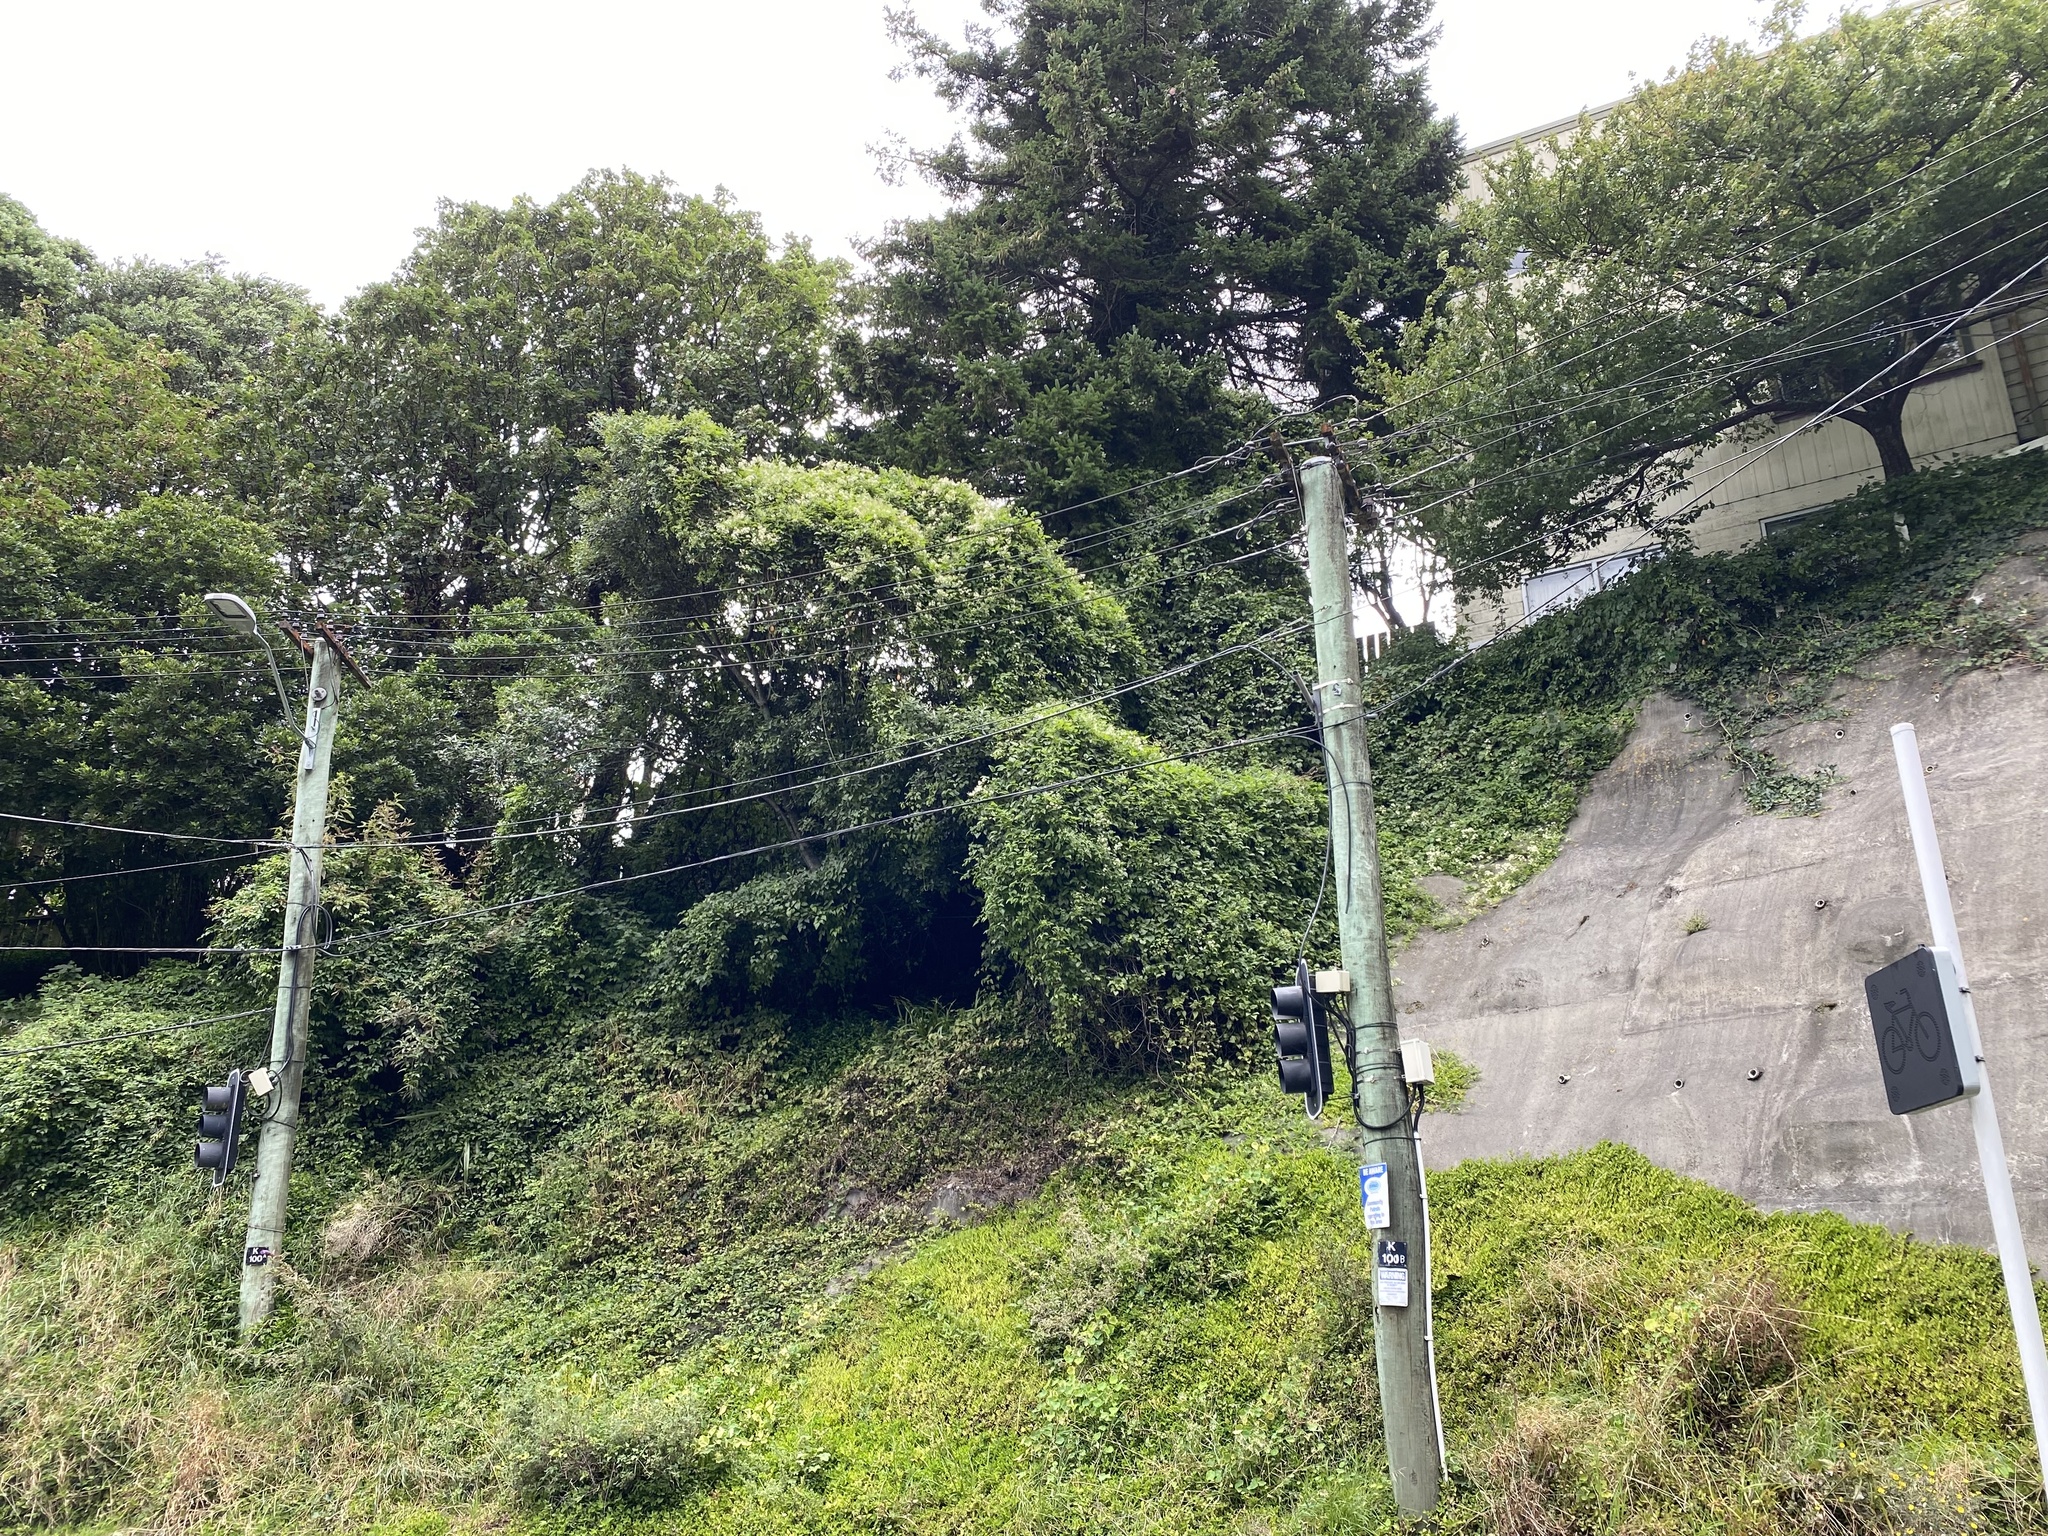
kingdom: Plantae
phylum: Tracheophyta
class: Magnoliopsida
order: Ranunculales
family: Ranunculaceae
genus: Clematis
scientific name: Clematis vitalba
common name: Evergreen clematis
